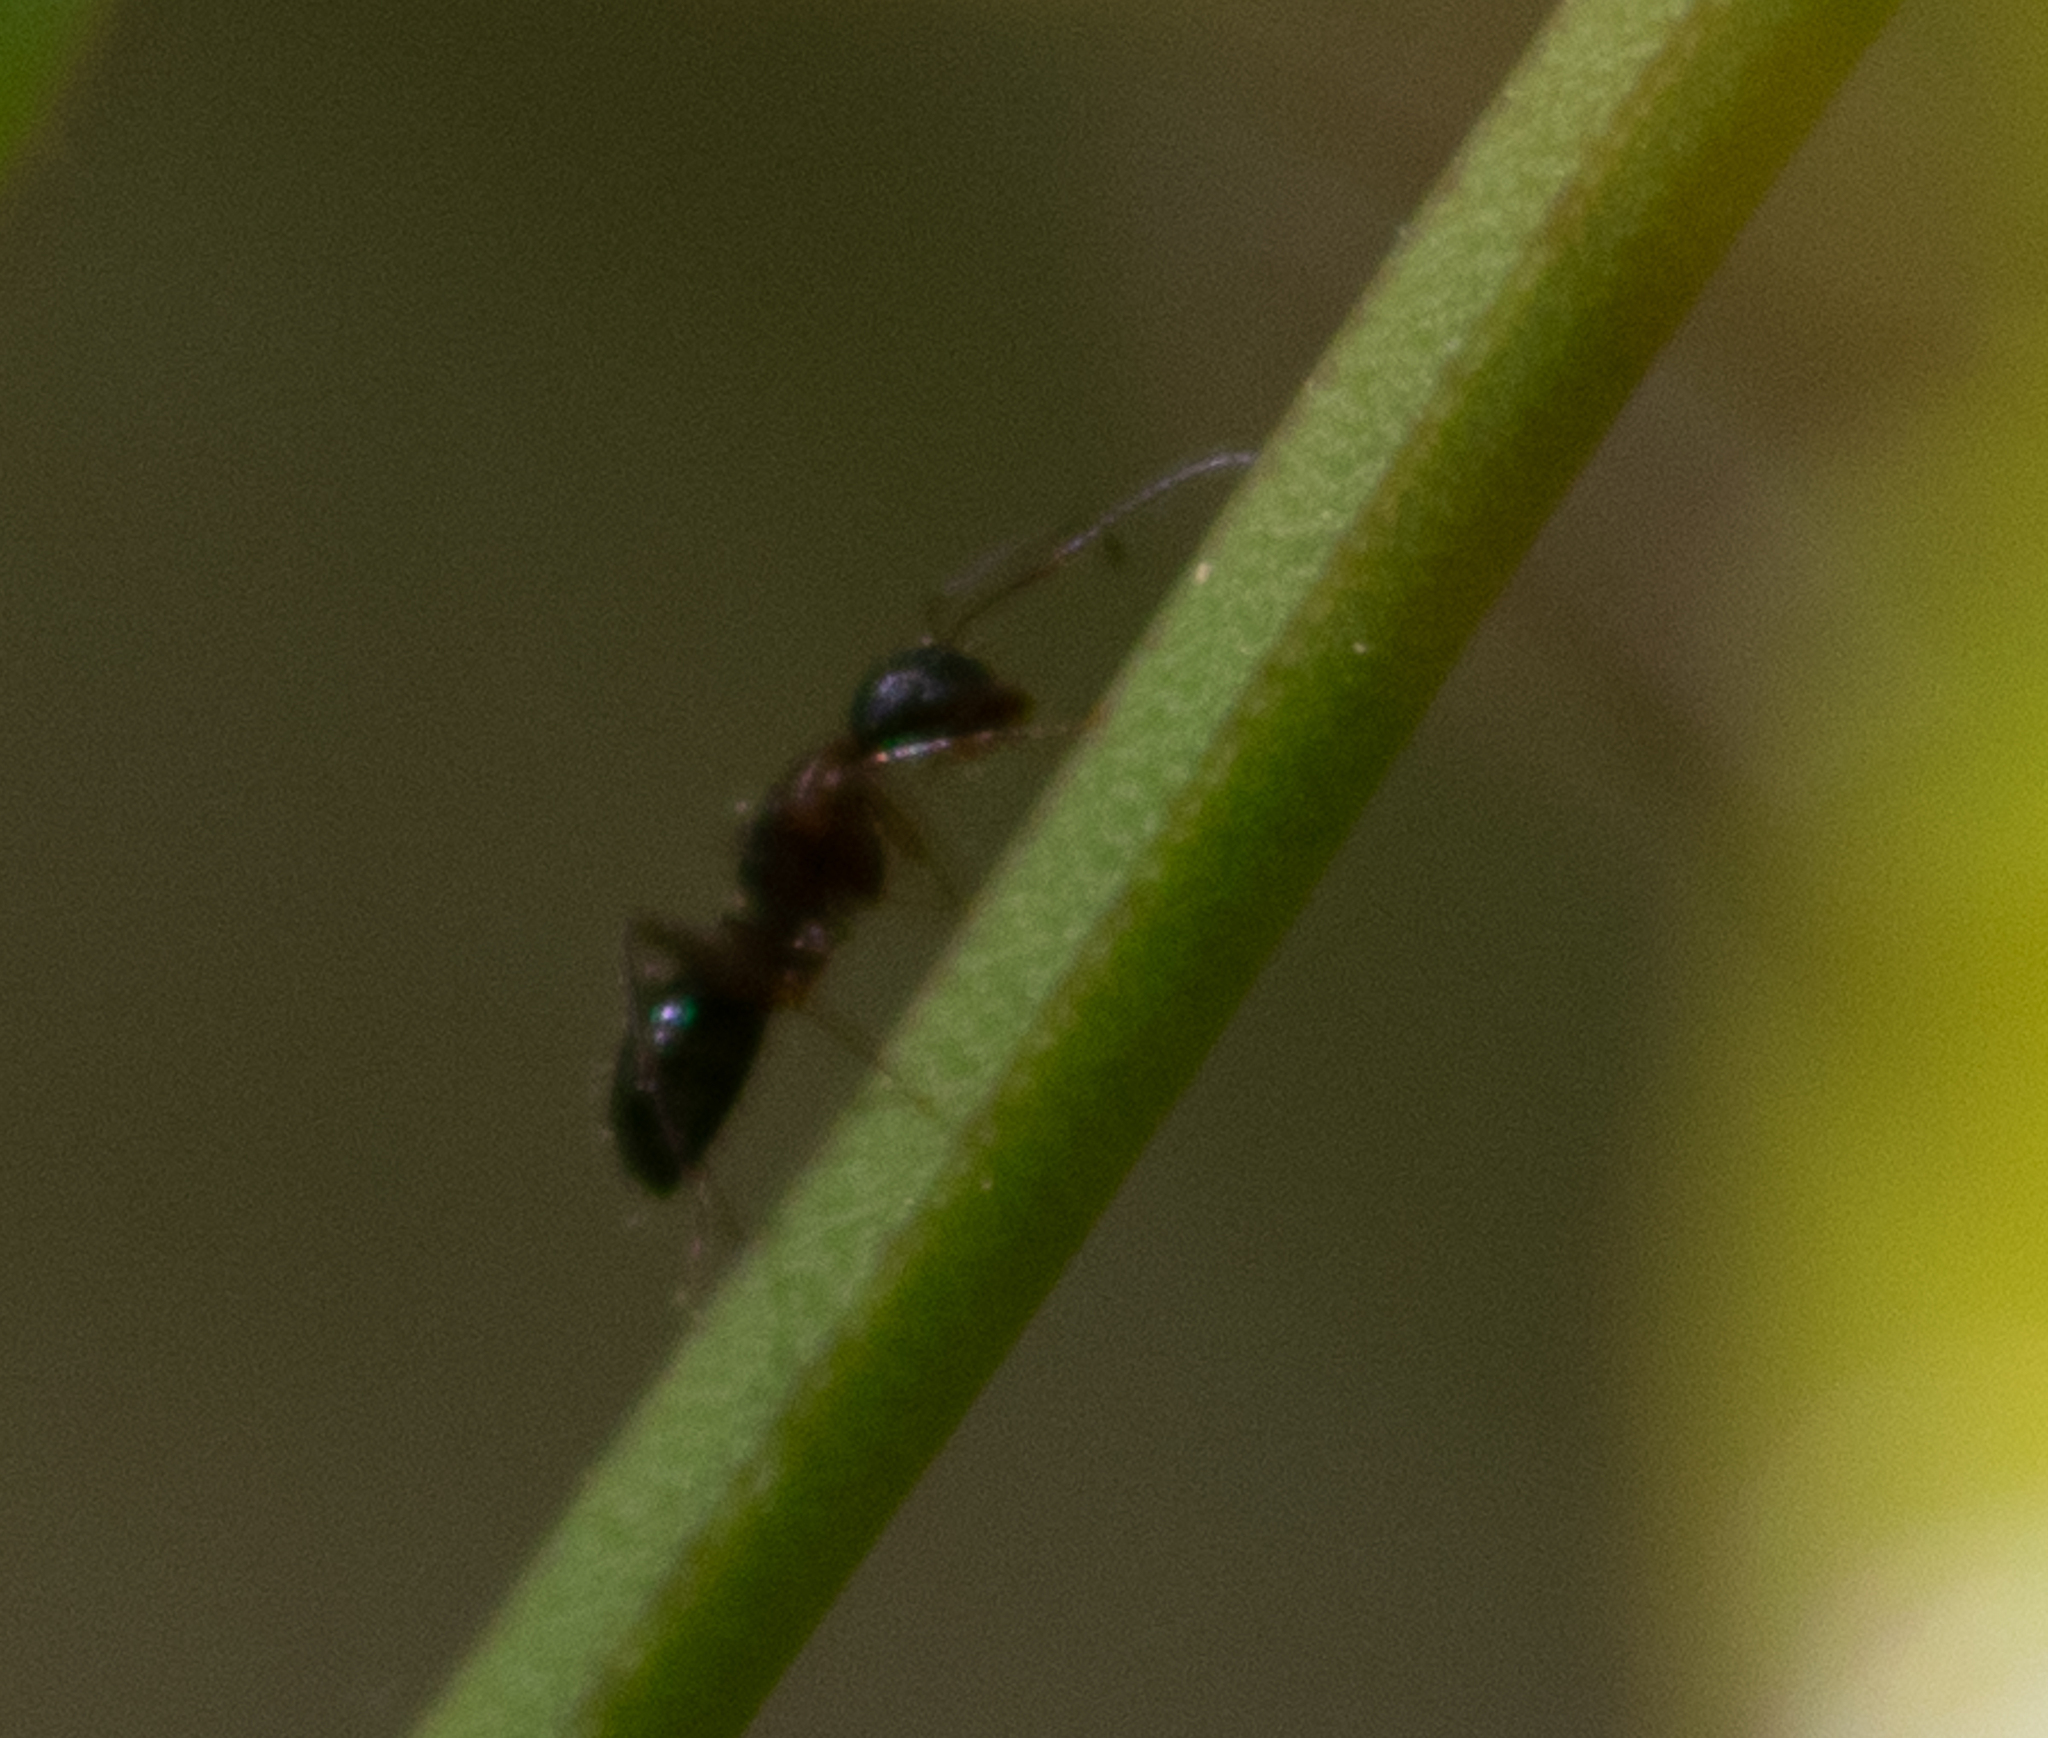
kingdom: Animalia
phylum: Arthropoda
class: Insecta
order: Hymenoptera
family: Formicidae
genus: Camponotus
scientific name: Camponotus nearcticus
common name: Smaller carpenter ant
